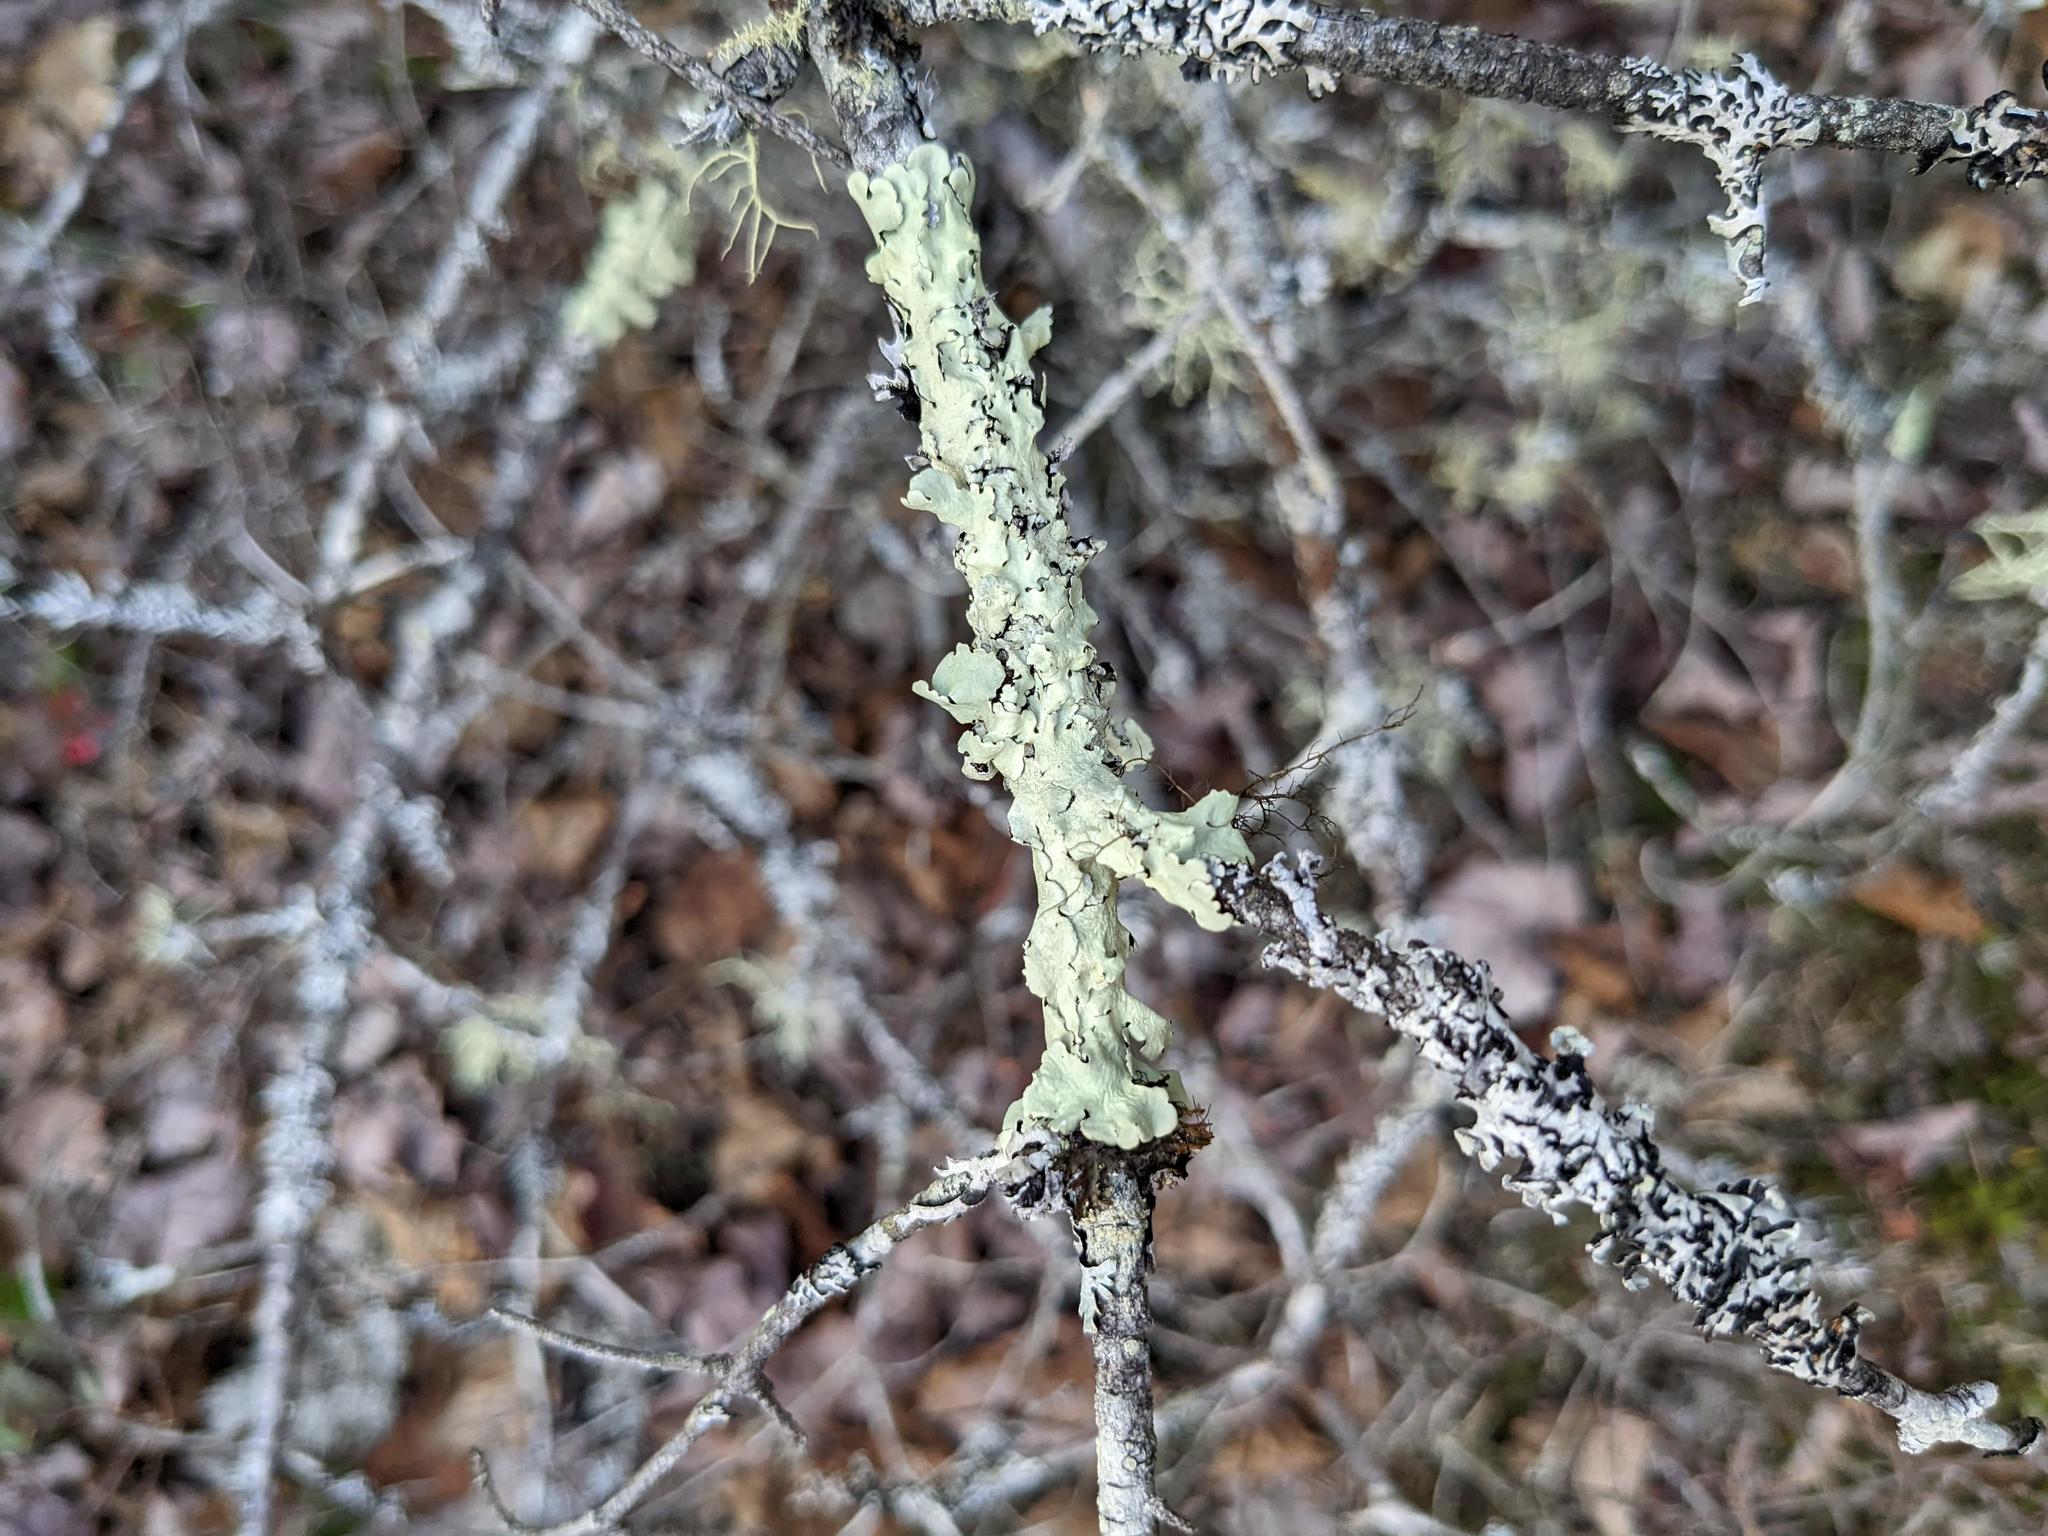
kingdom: Fungi
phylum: Ascomycota
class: Lecanoromycetes
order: Lecanorales
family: Parmeliaceae
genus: Flavoparmelia
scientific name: Flavoparmelia caperata
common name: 40-mile per hour lichen
